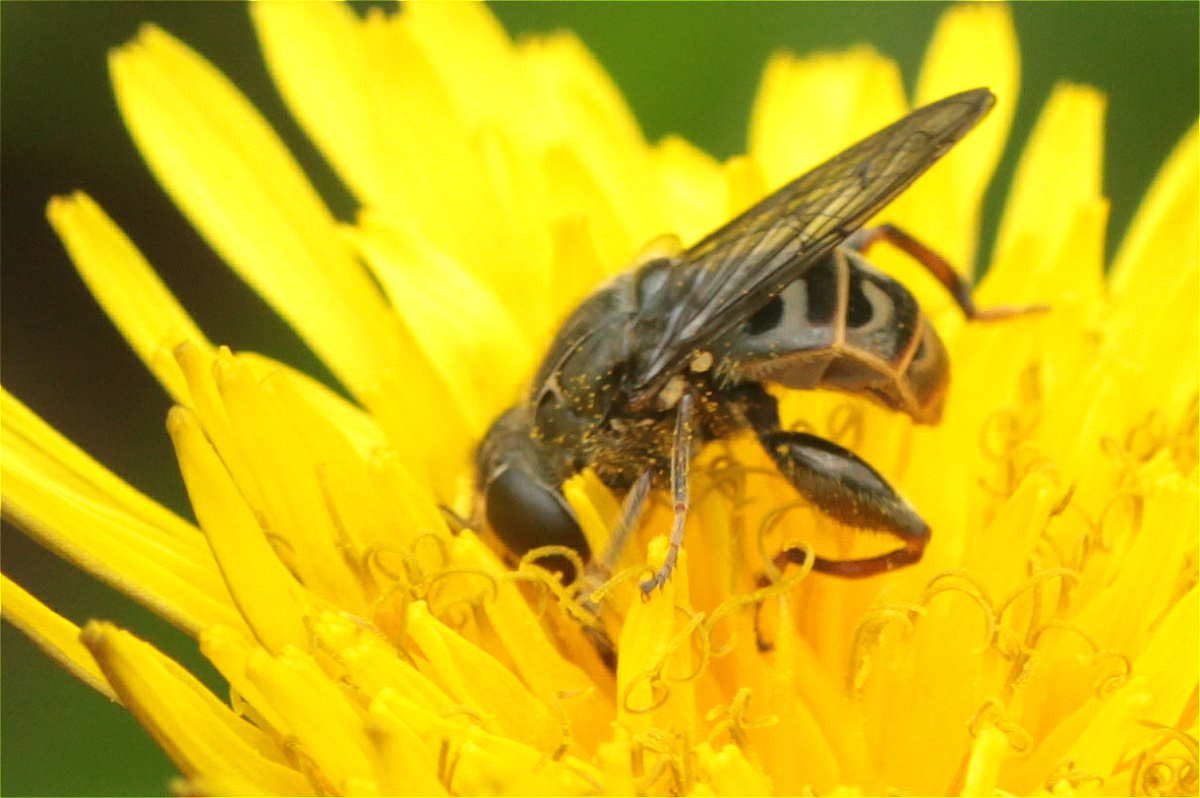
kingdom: Animalia
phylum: Arthropoda
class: Insecta
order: Diptera
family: Syrphidae
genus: Asemosyrphus
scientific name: Asemosyrphus
